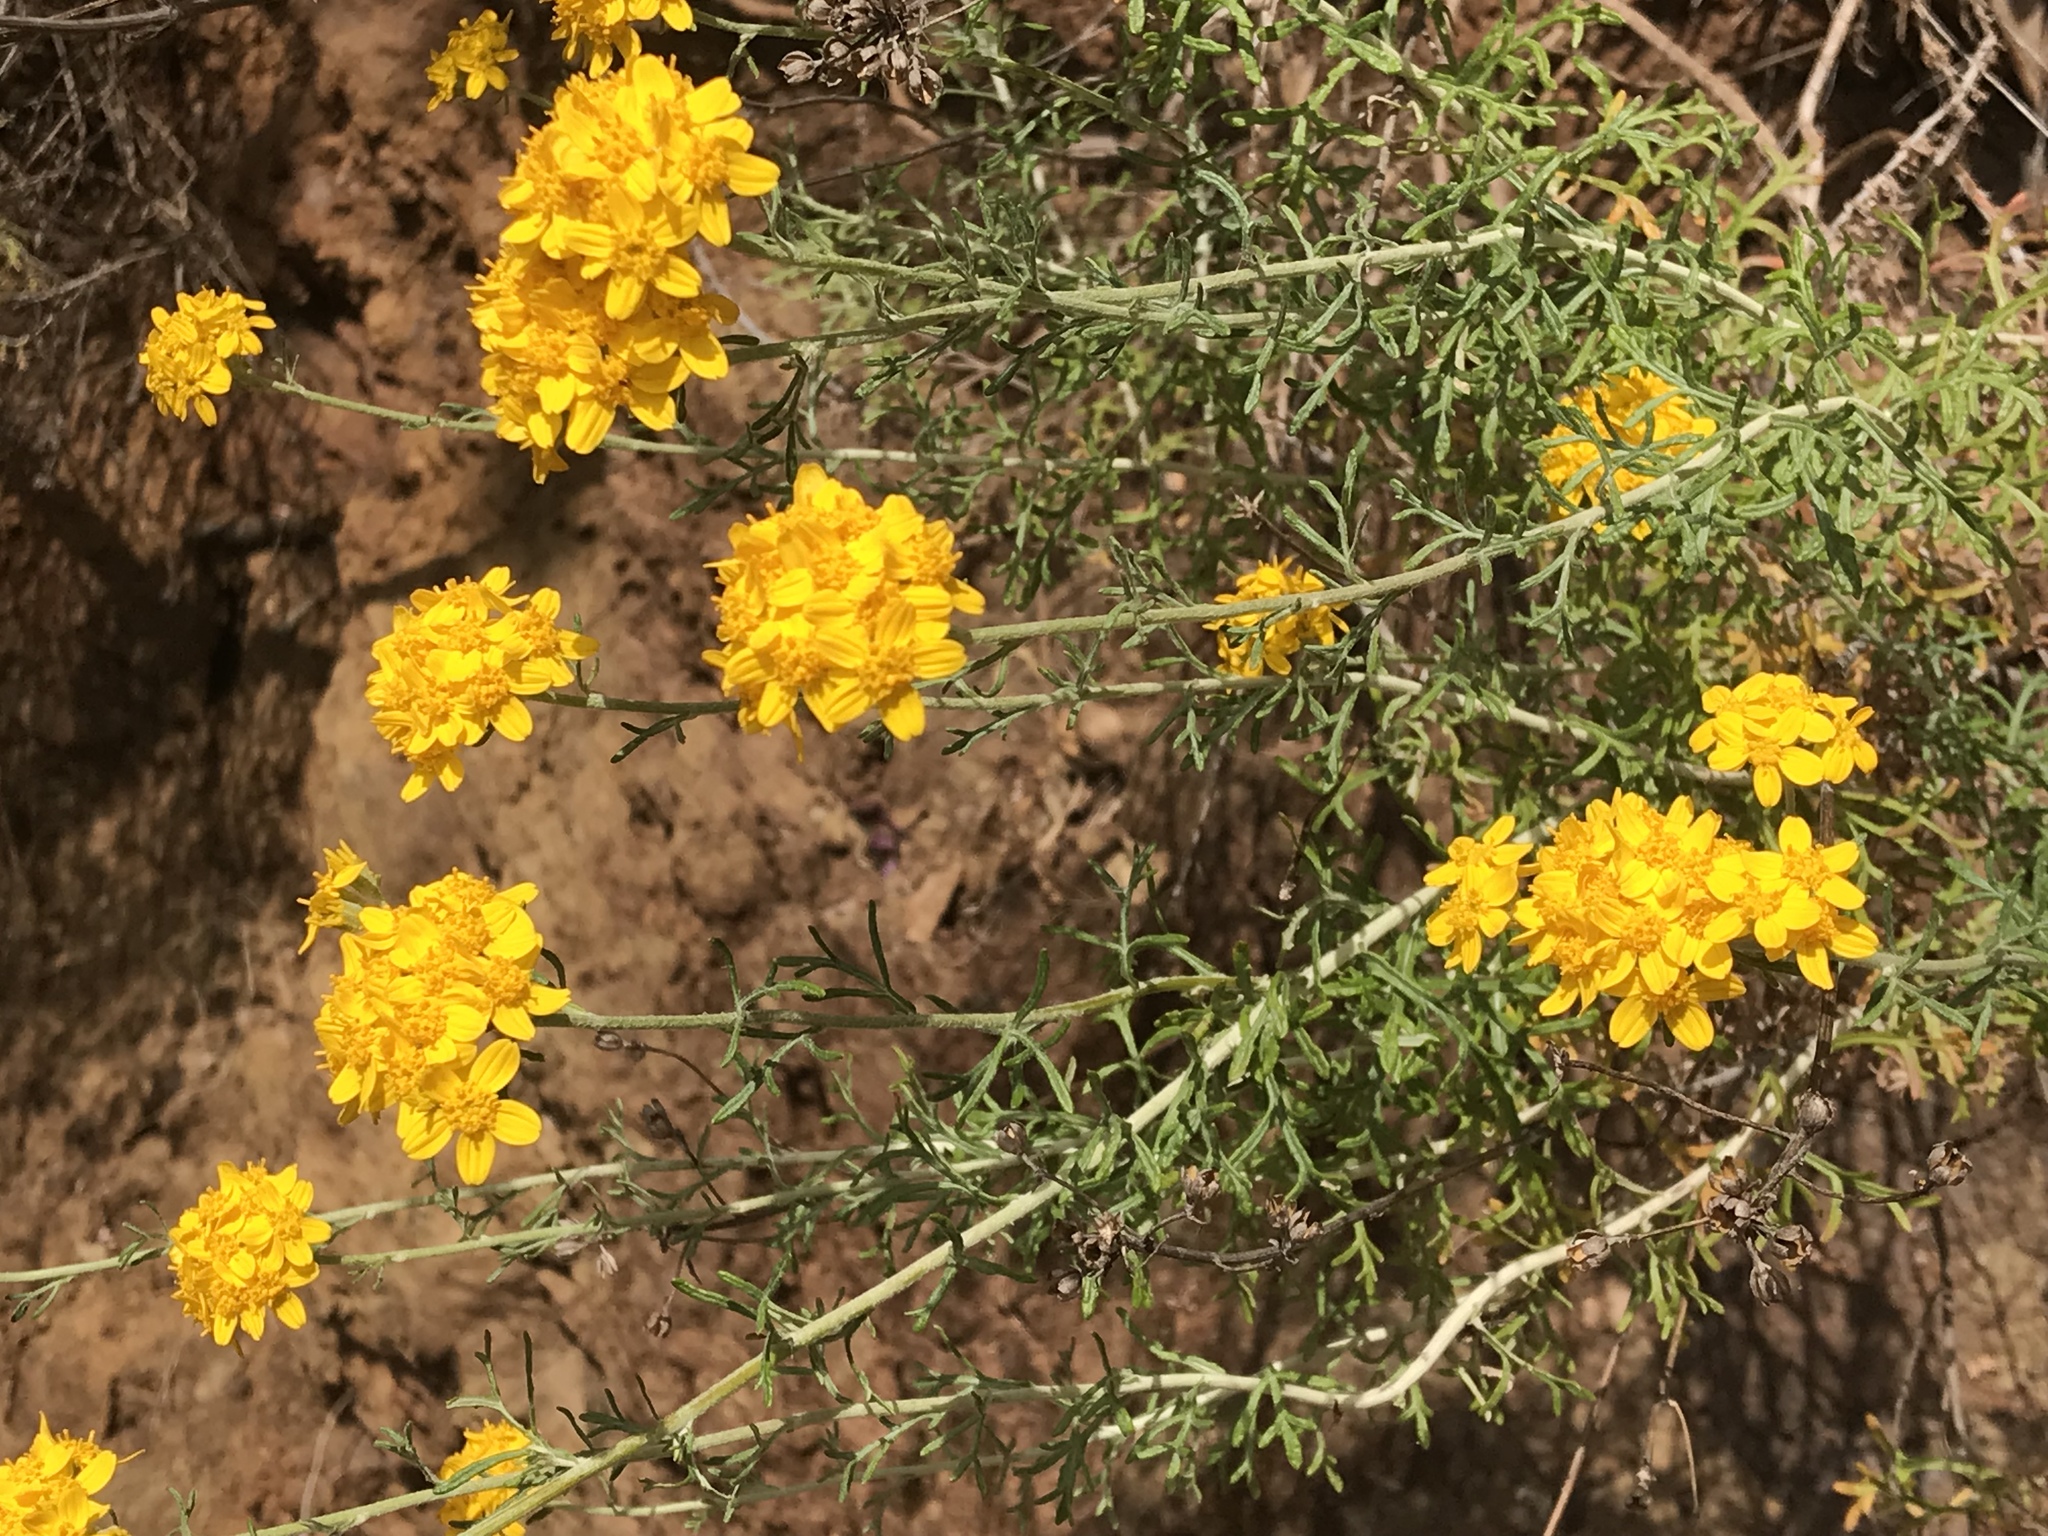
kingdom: Plantae
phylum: Tracheophyta
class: Magnoliopsida
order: Asterales
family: Asteraceae
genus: Eriophyllum
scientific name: Eriophyllum confertiflorum
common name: Golden-yarrow
